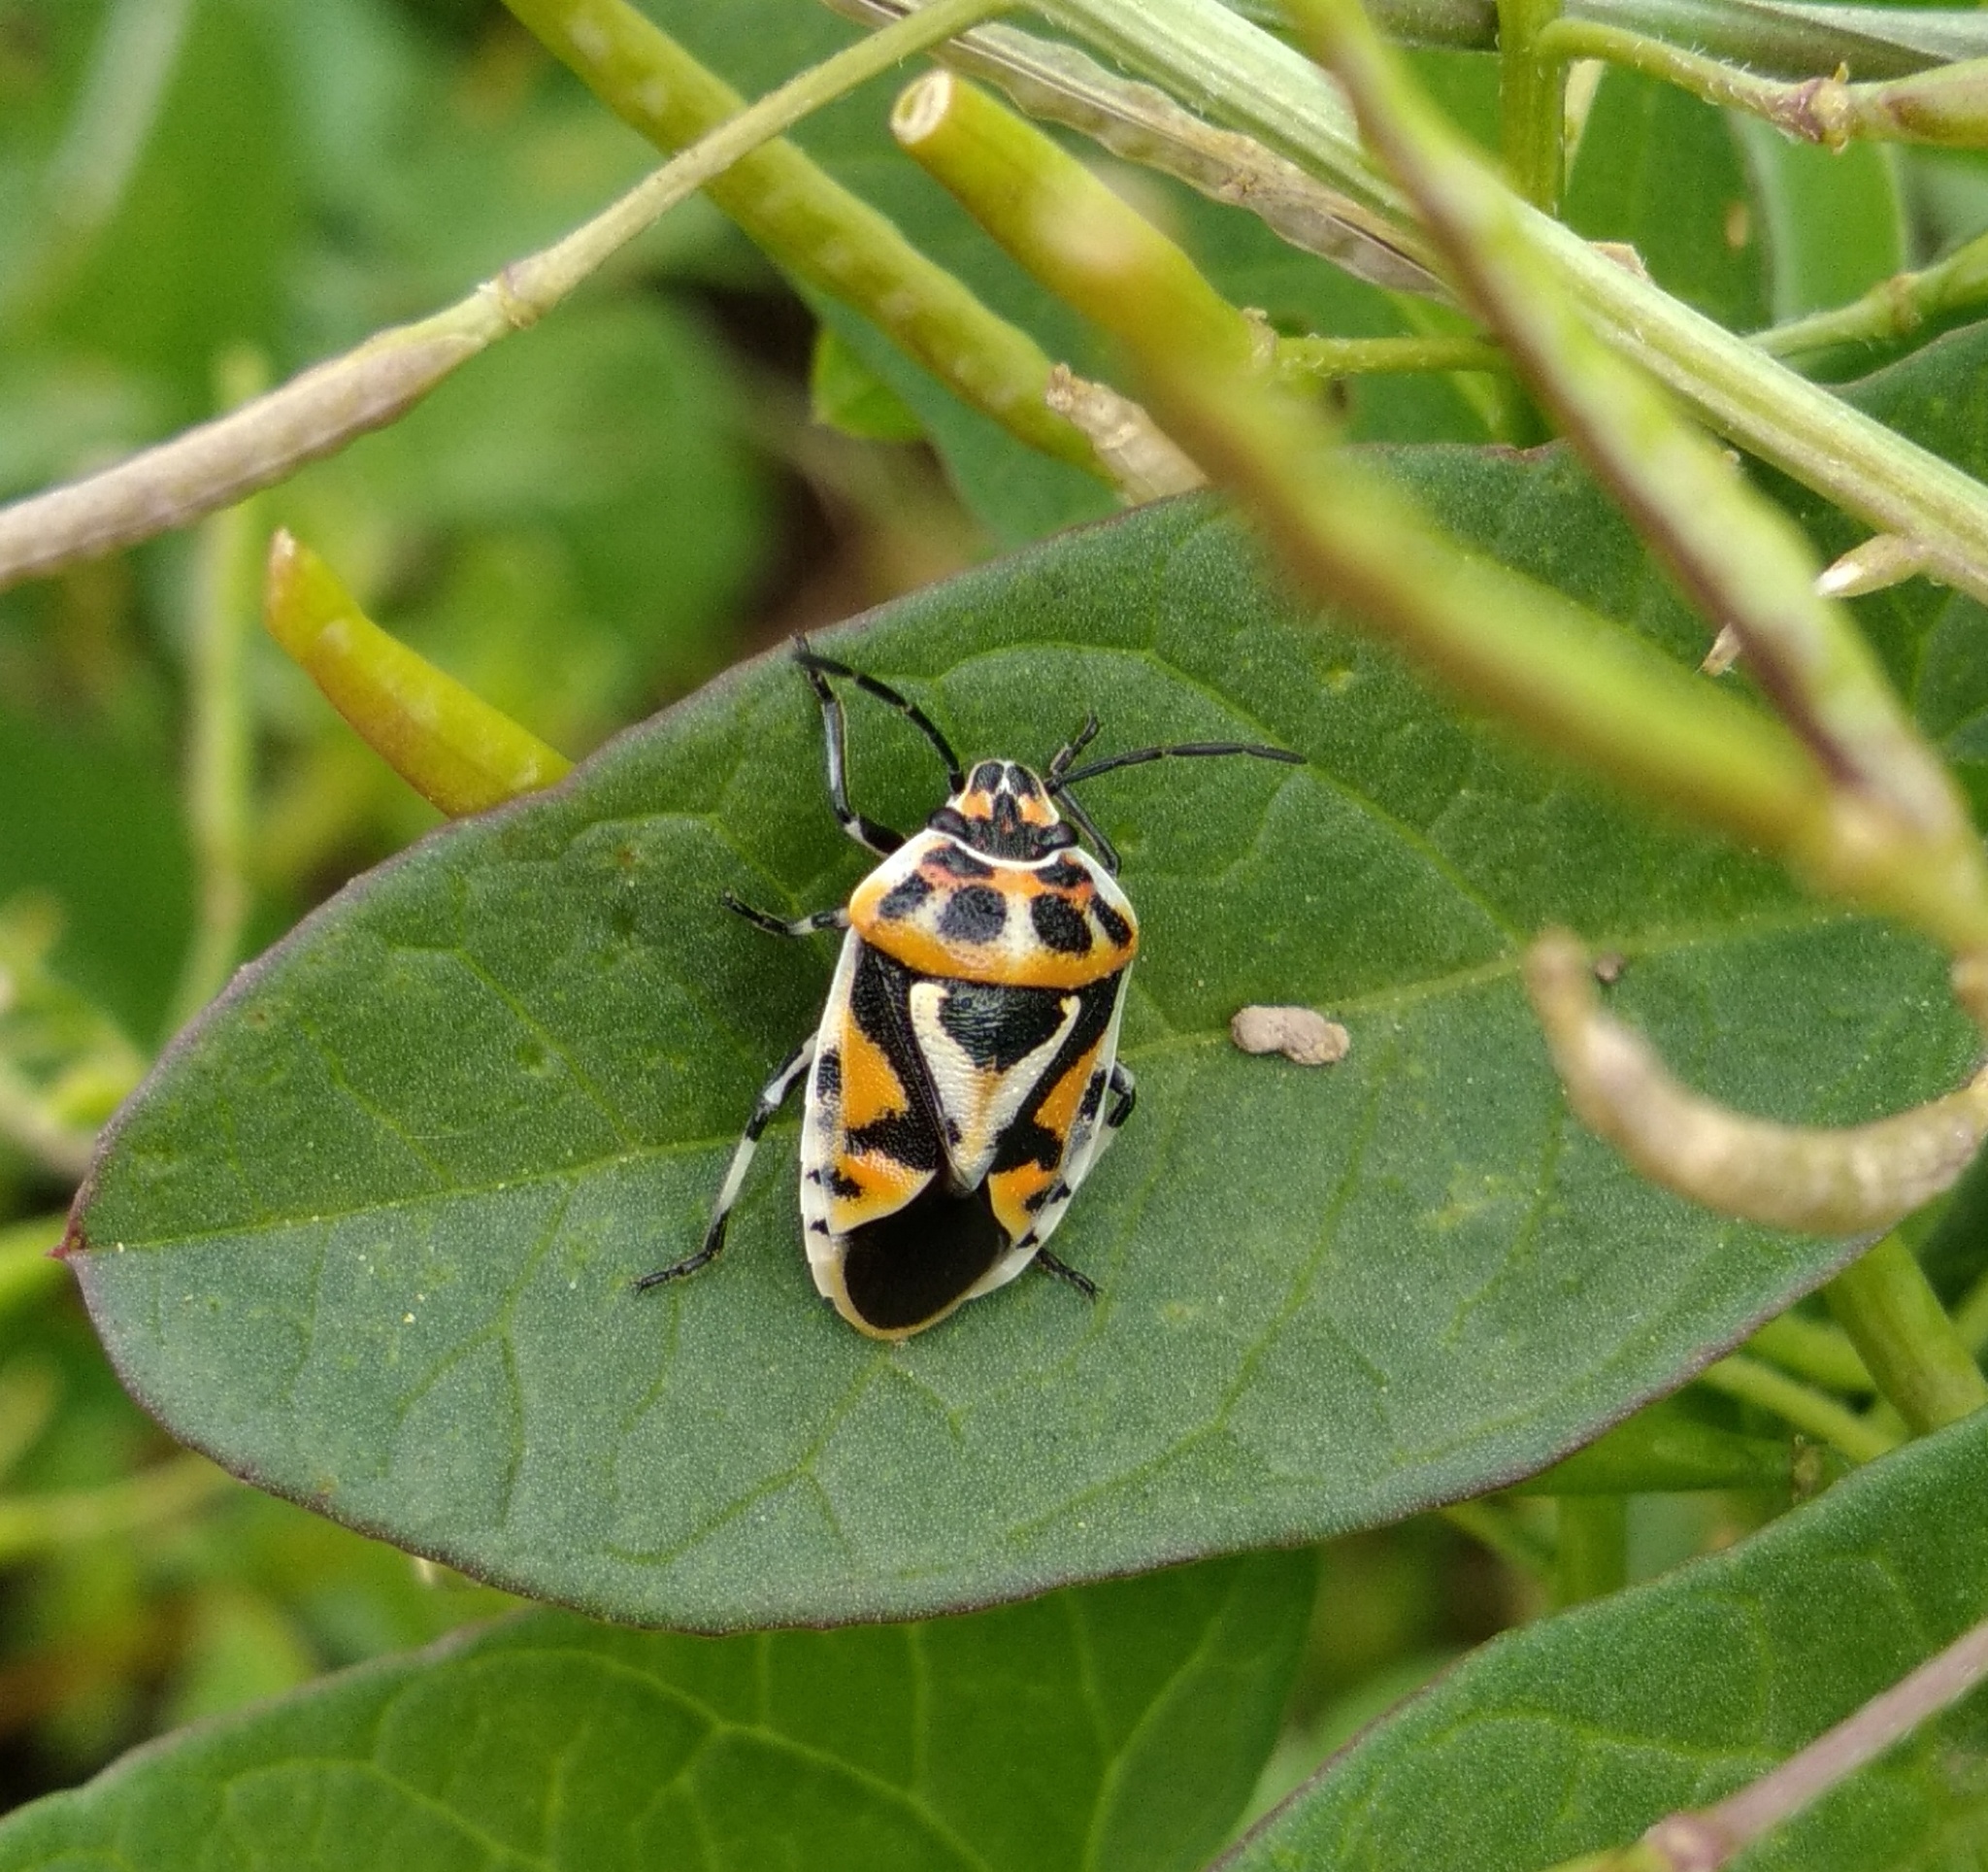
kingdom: Animalia
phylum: Arthropoda
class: Insecta
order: Hemiptera
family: Pentatomidae
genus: Eurydema
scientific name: Eurydema ornata
